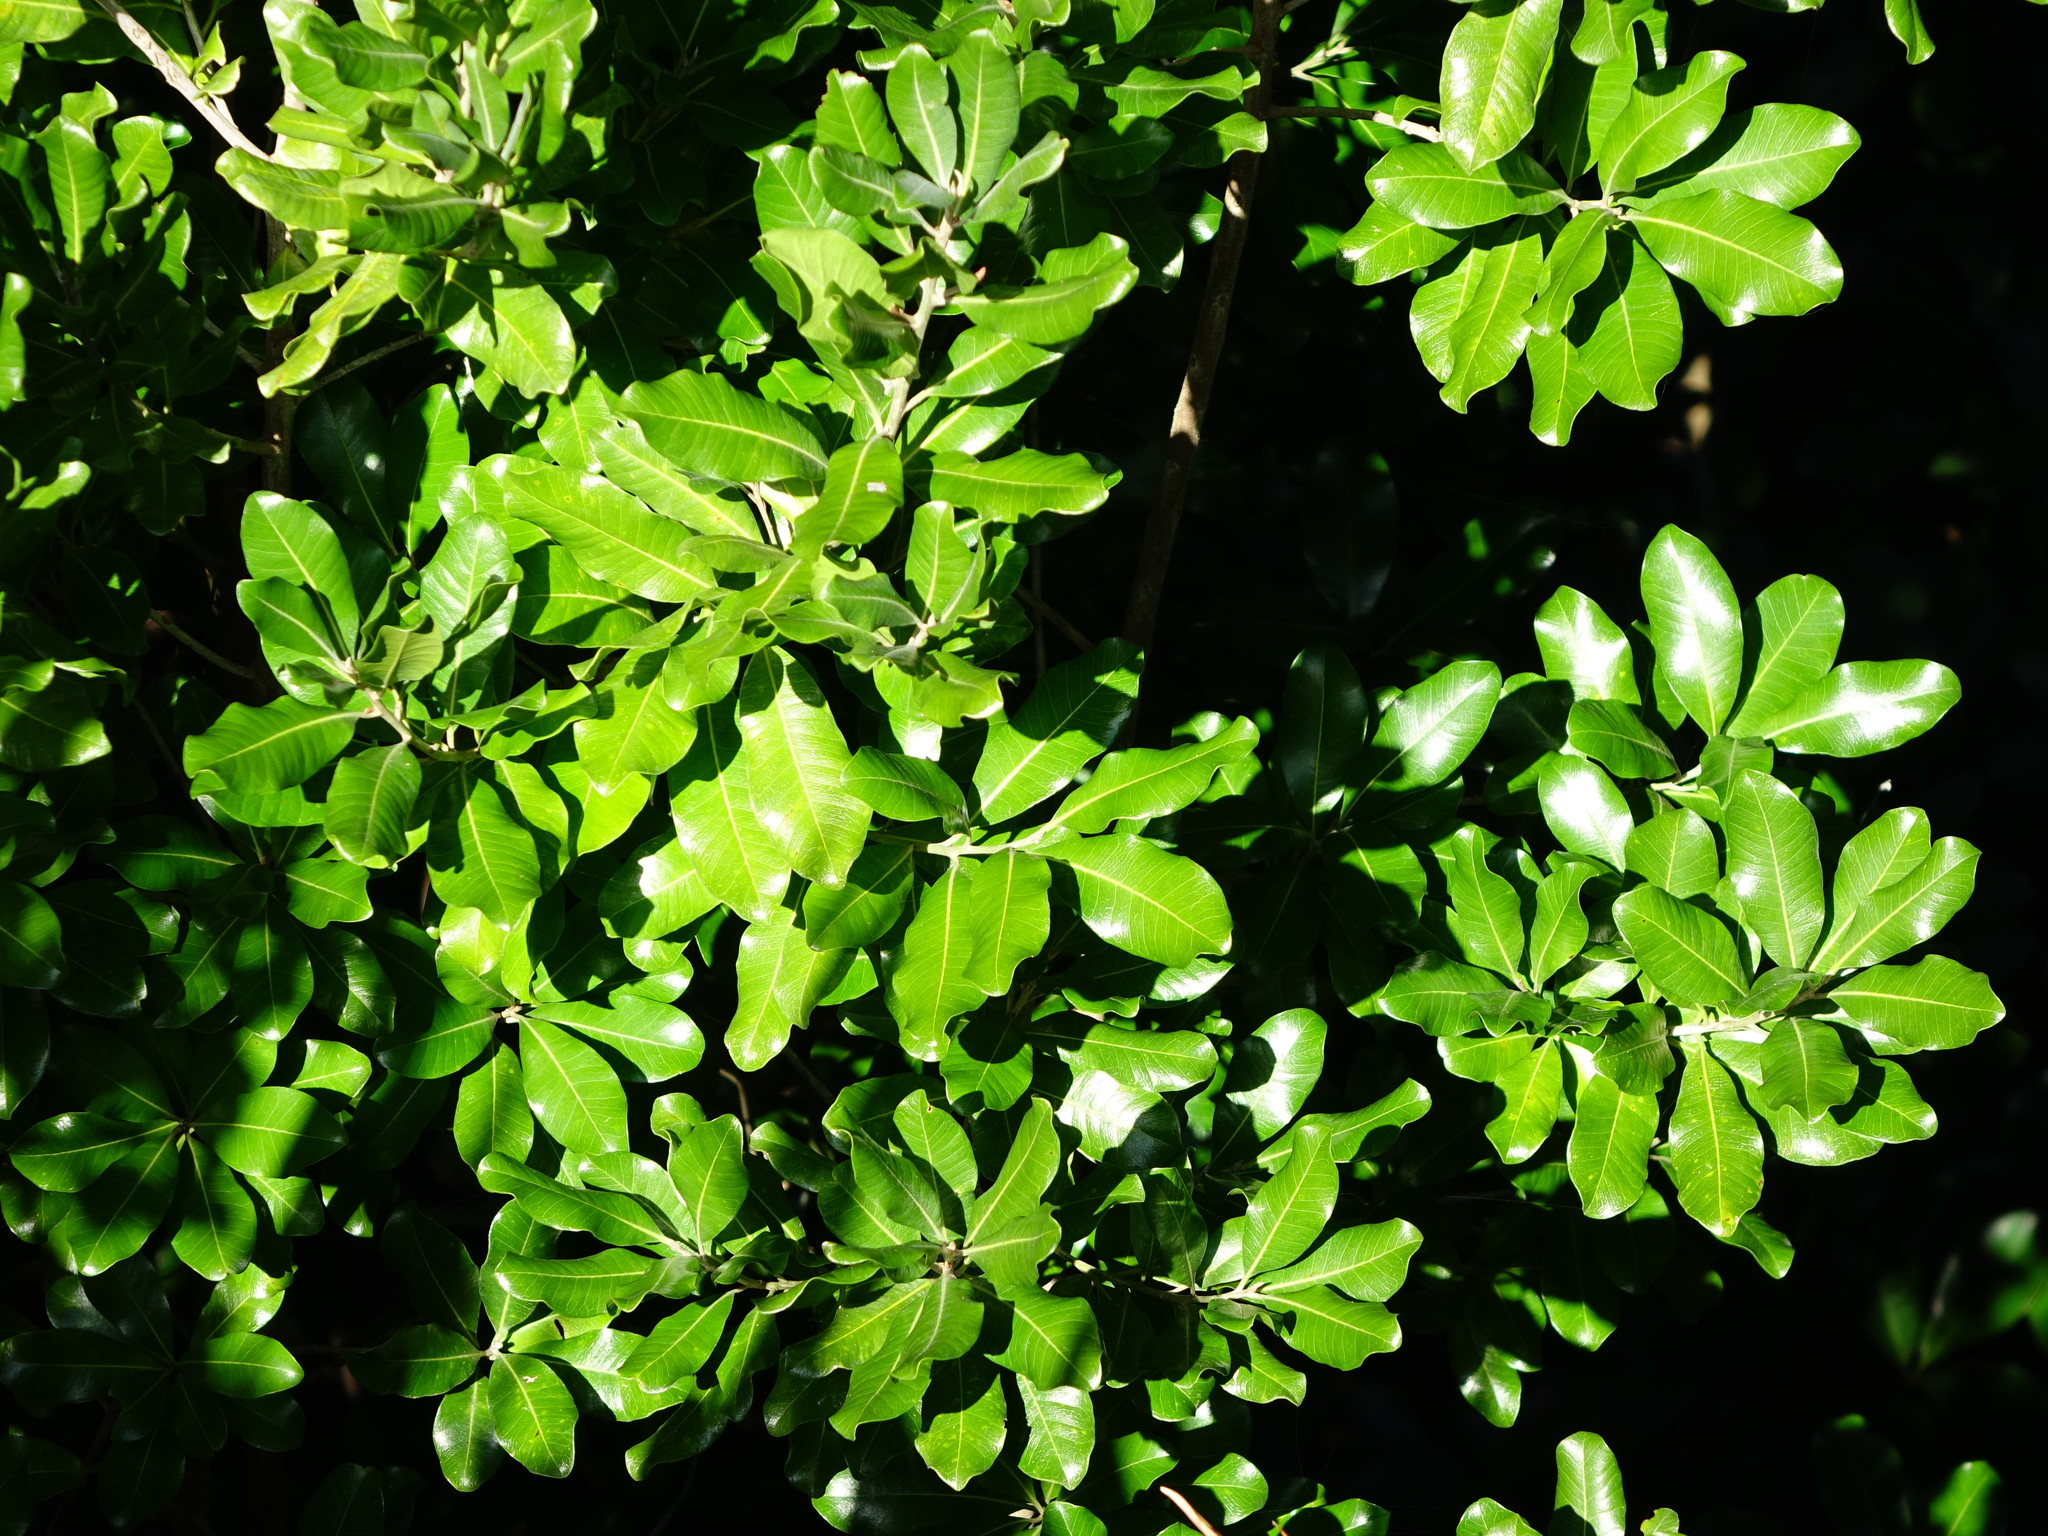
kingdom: Plantae
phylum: Tracheophyta
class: Magnoliopsida
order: Ericales
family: Sapotaceae
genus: Planchonella
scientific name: Planchonella costata
